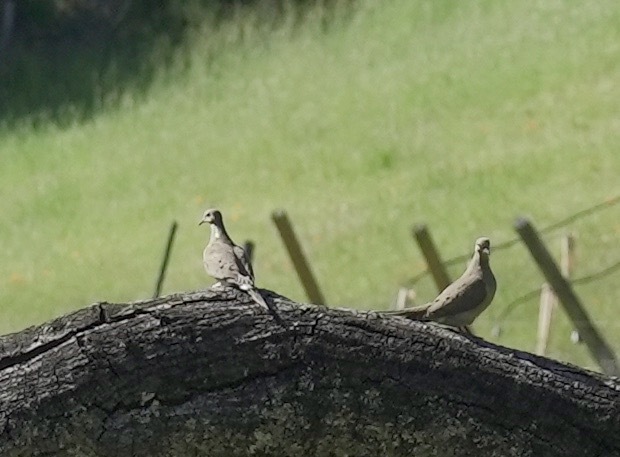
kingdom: Animalia
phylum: Chordata
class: Aves
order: Columbiformes
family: Columbidae
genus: Zenaida
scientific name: Zenaida macroura
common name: Mourning dove
